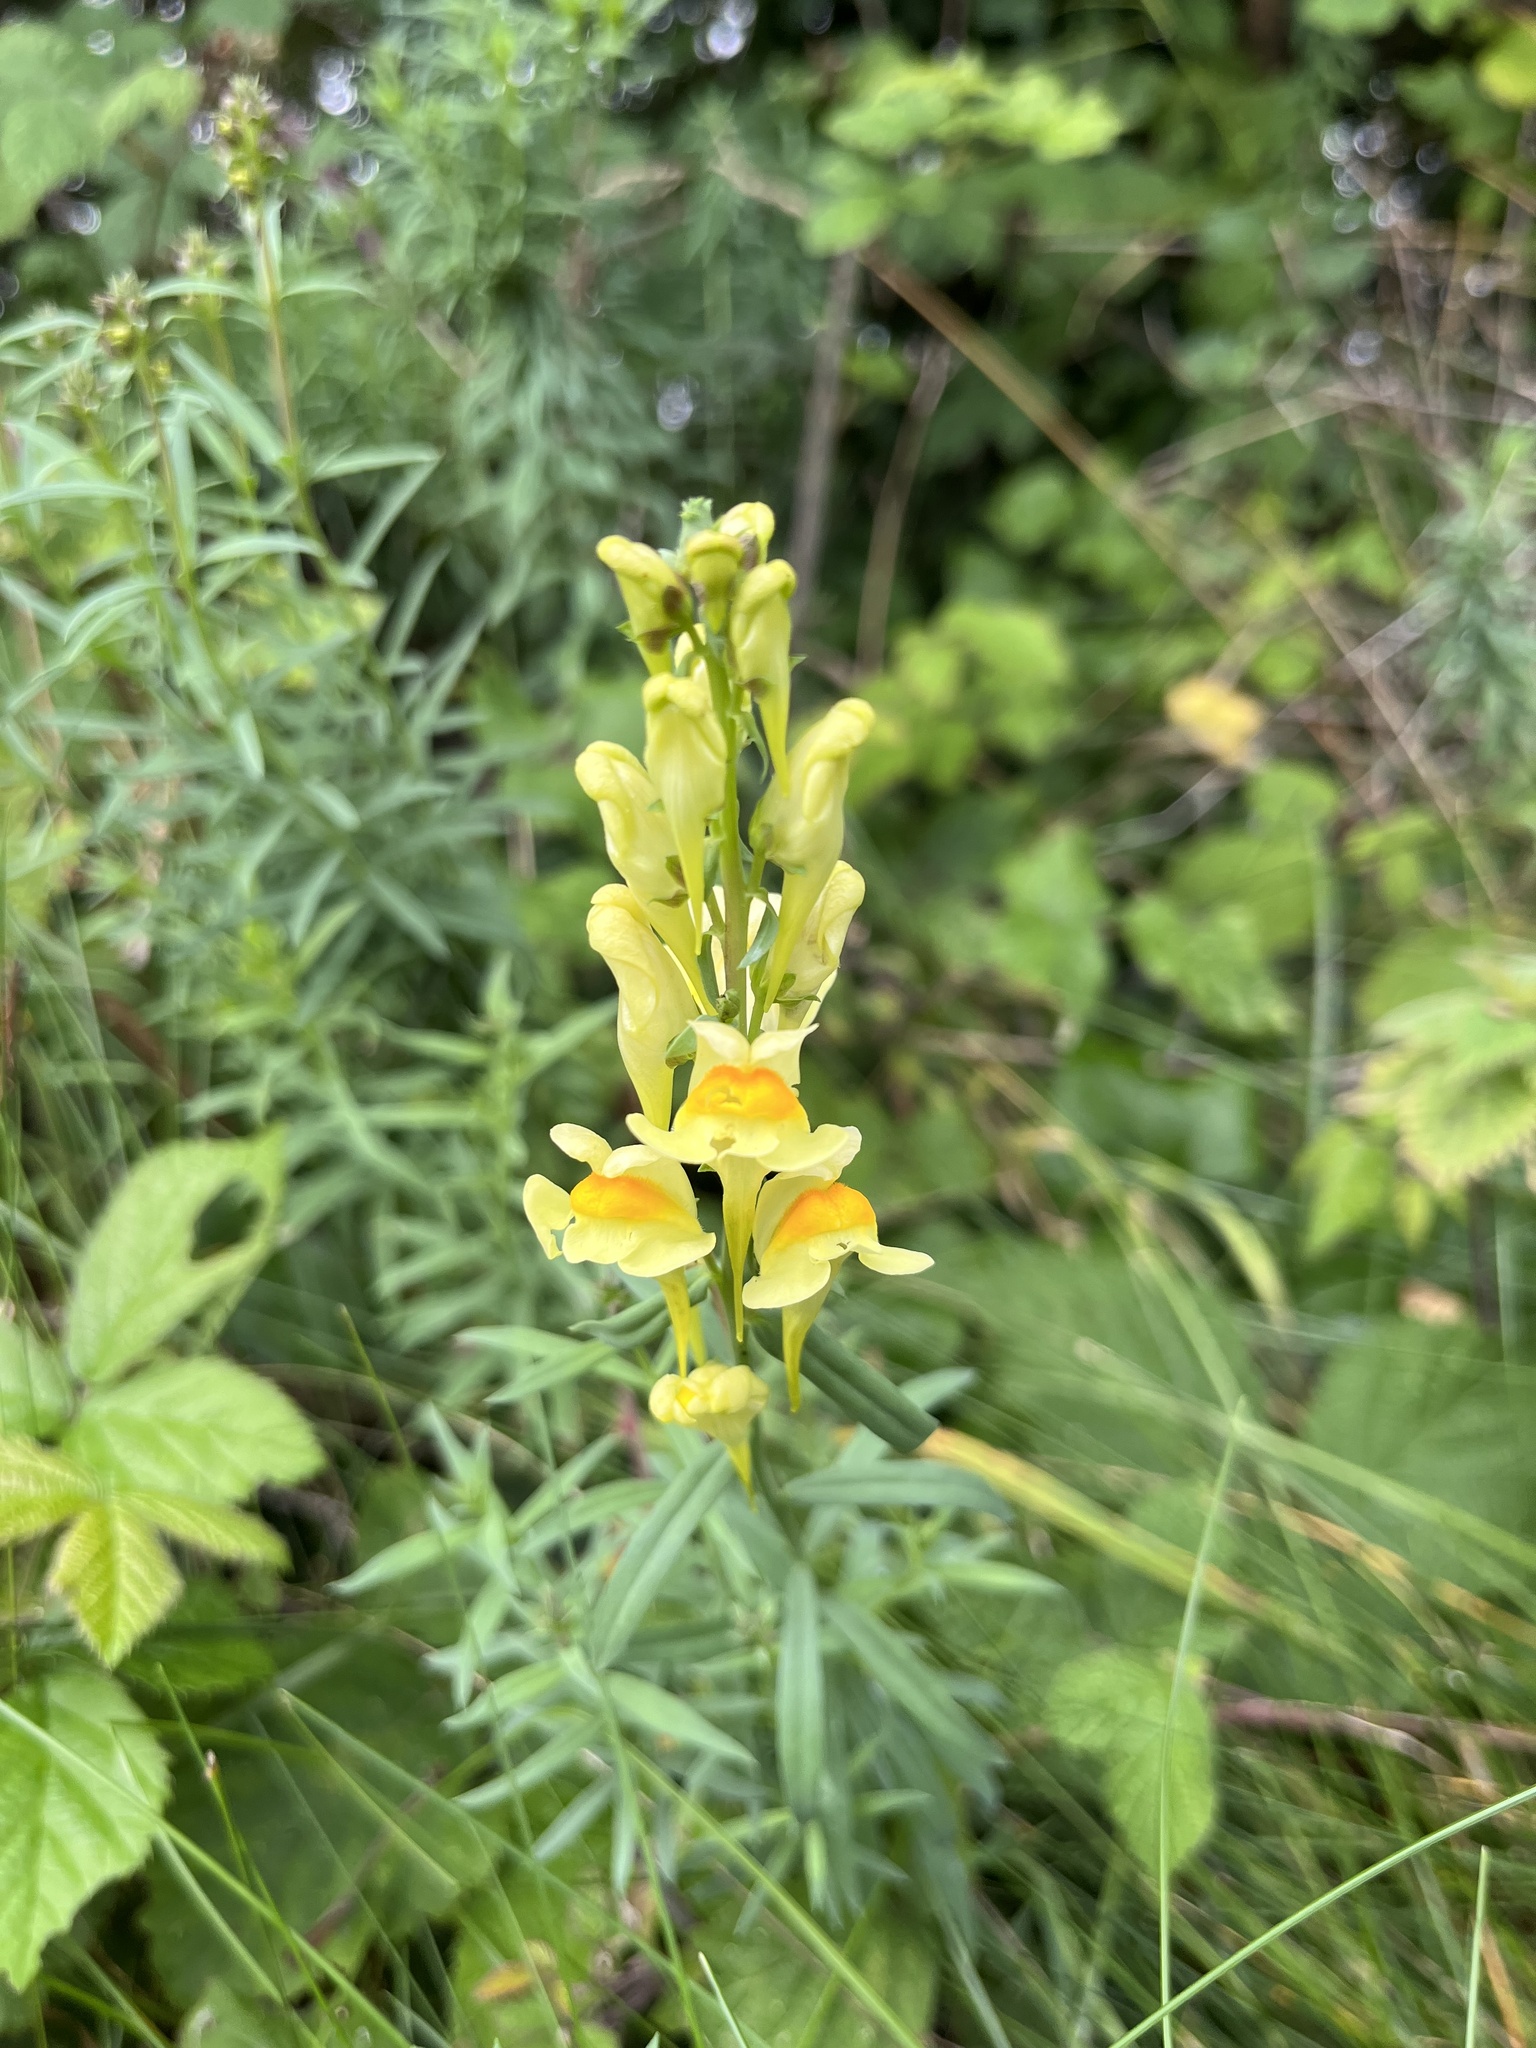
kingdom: Plantae
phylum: Tracheophyta
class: Magnoliopsida
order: Lamiales
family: Plantaginaceae
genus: Linaria
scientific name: Linaria vulgaris
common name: Butter and eggs
